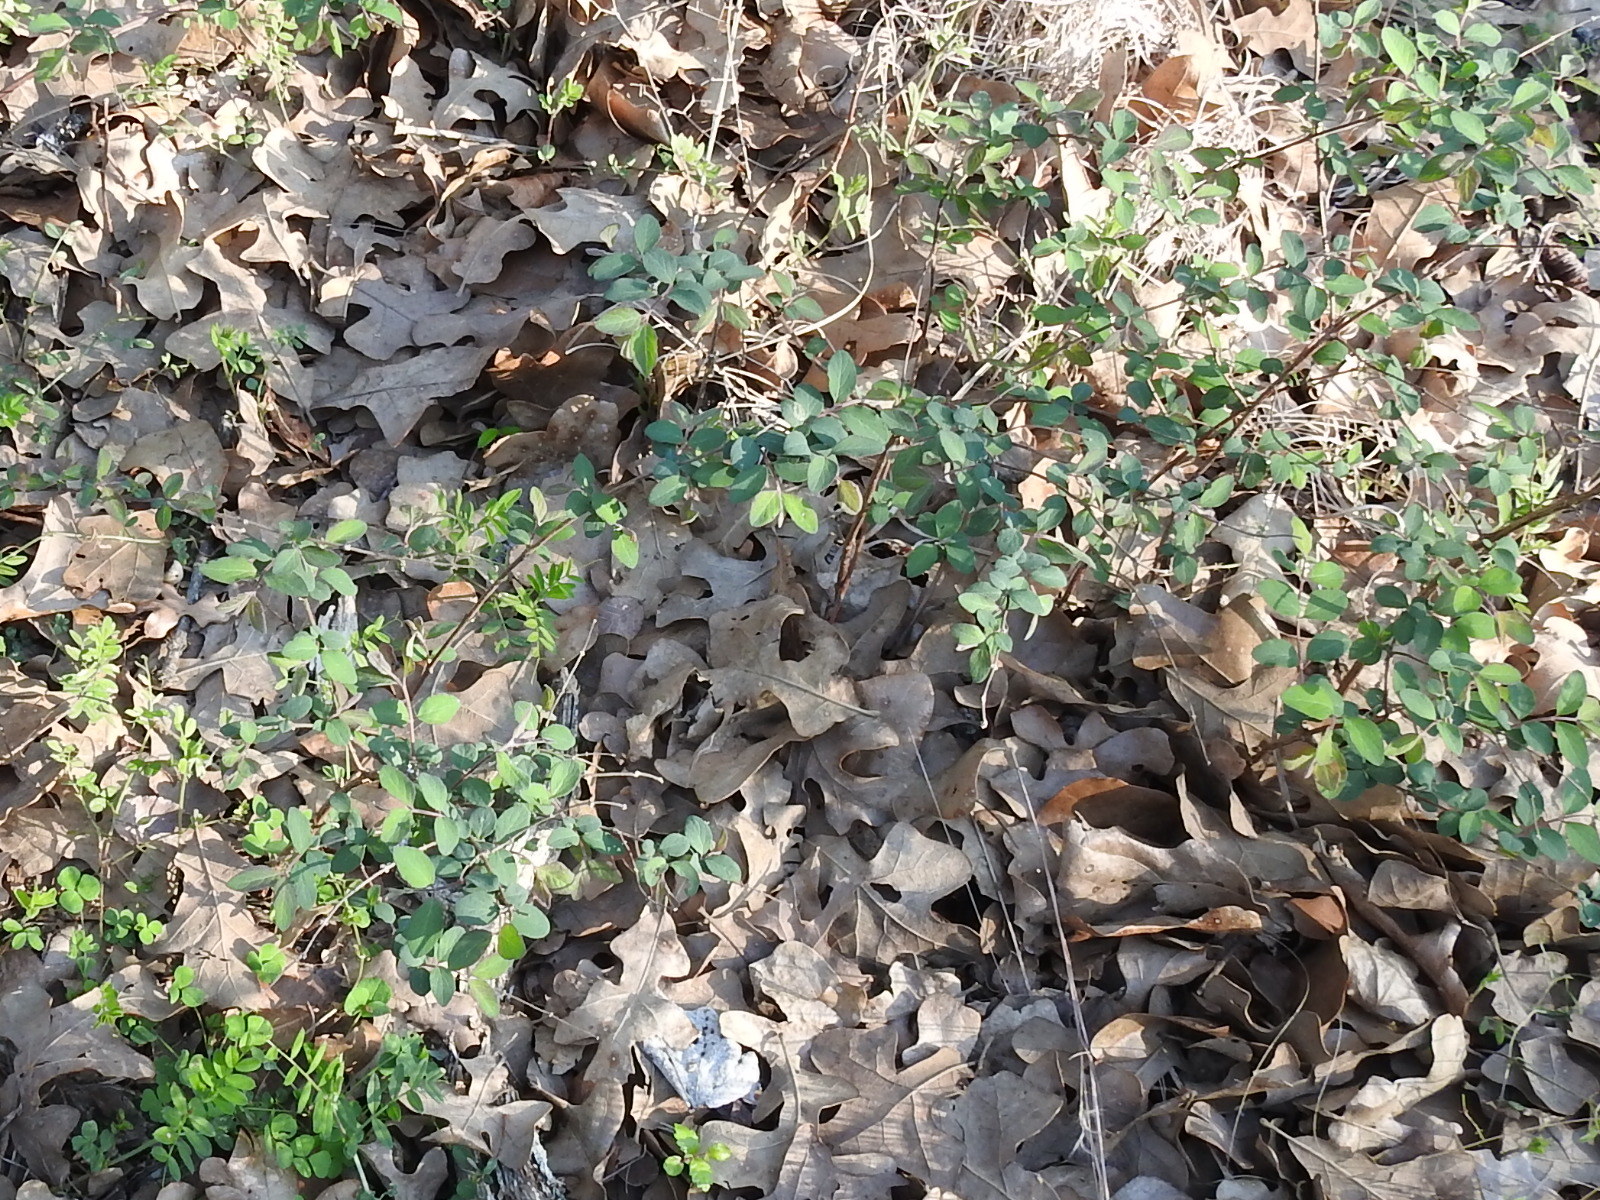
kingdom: Plantae
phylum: Tracheophyta
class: Magnoliopsida
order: Dipsacales
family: Caprifoliaceae
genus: Symphoricarpos
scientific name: Symphoricarpos orbiculatus
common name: Coralberry
